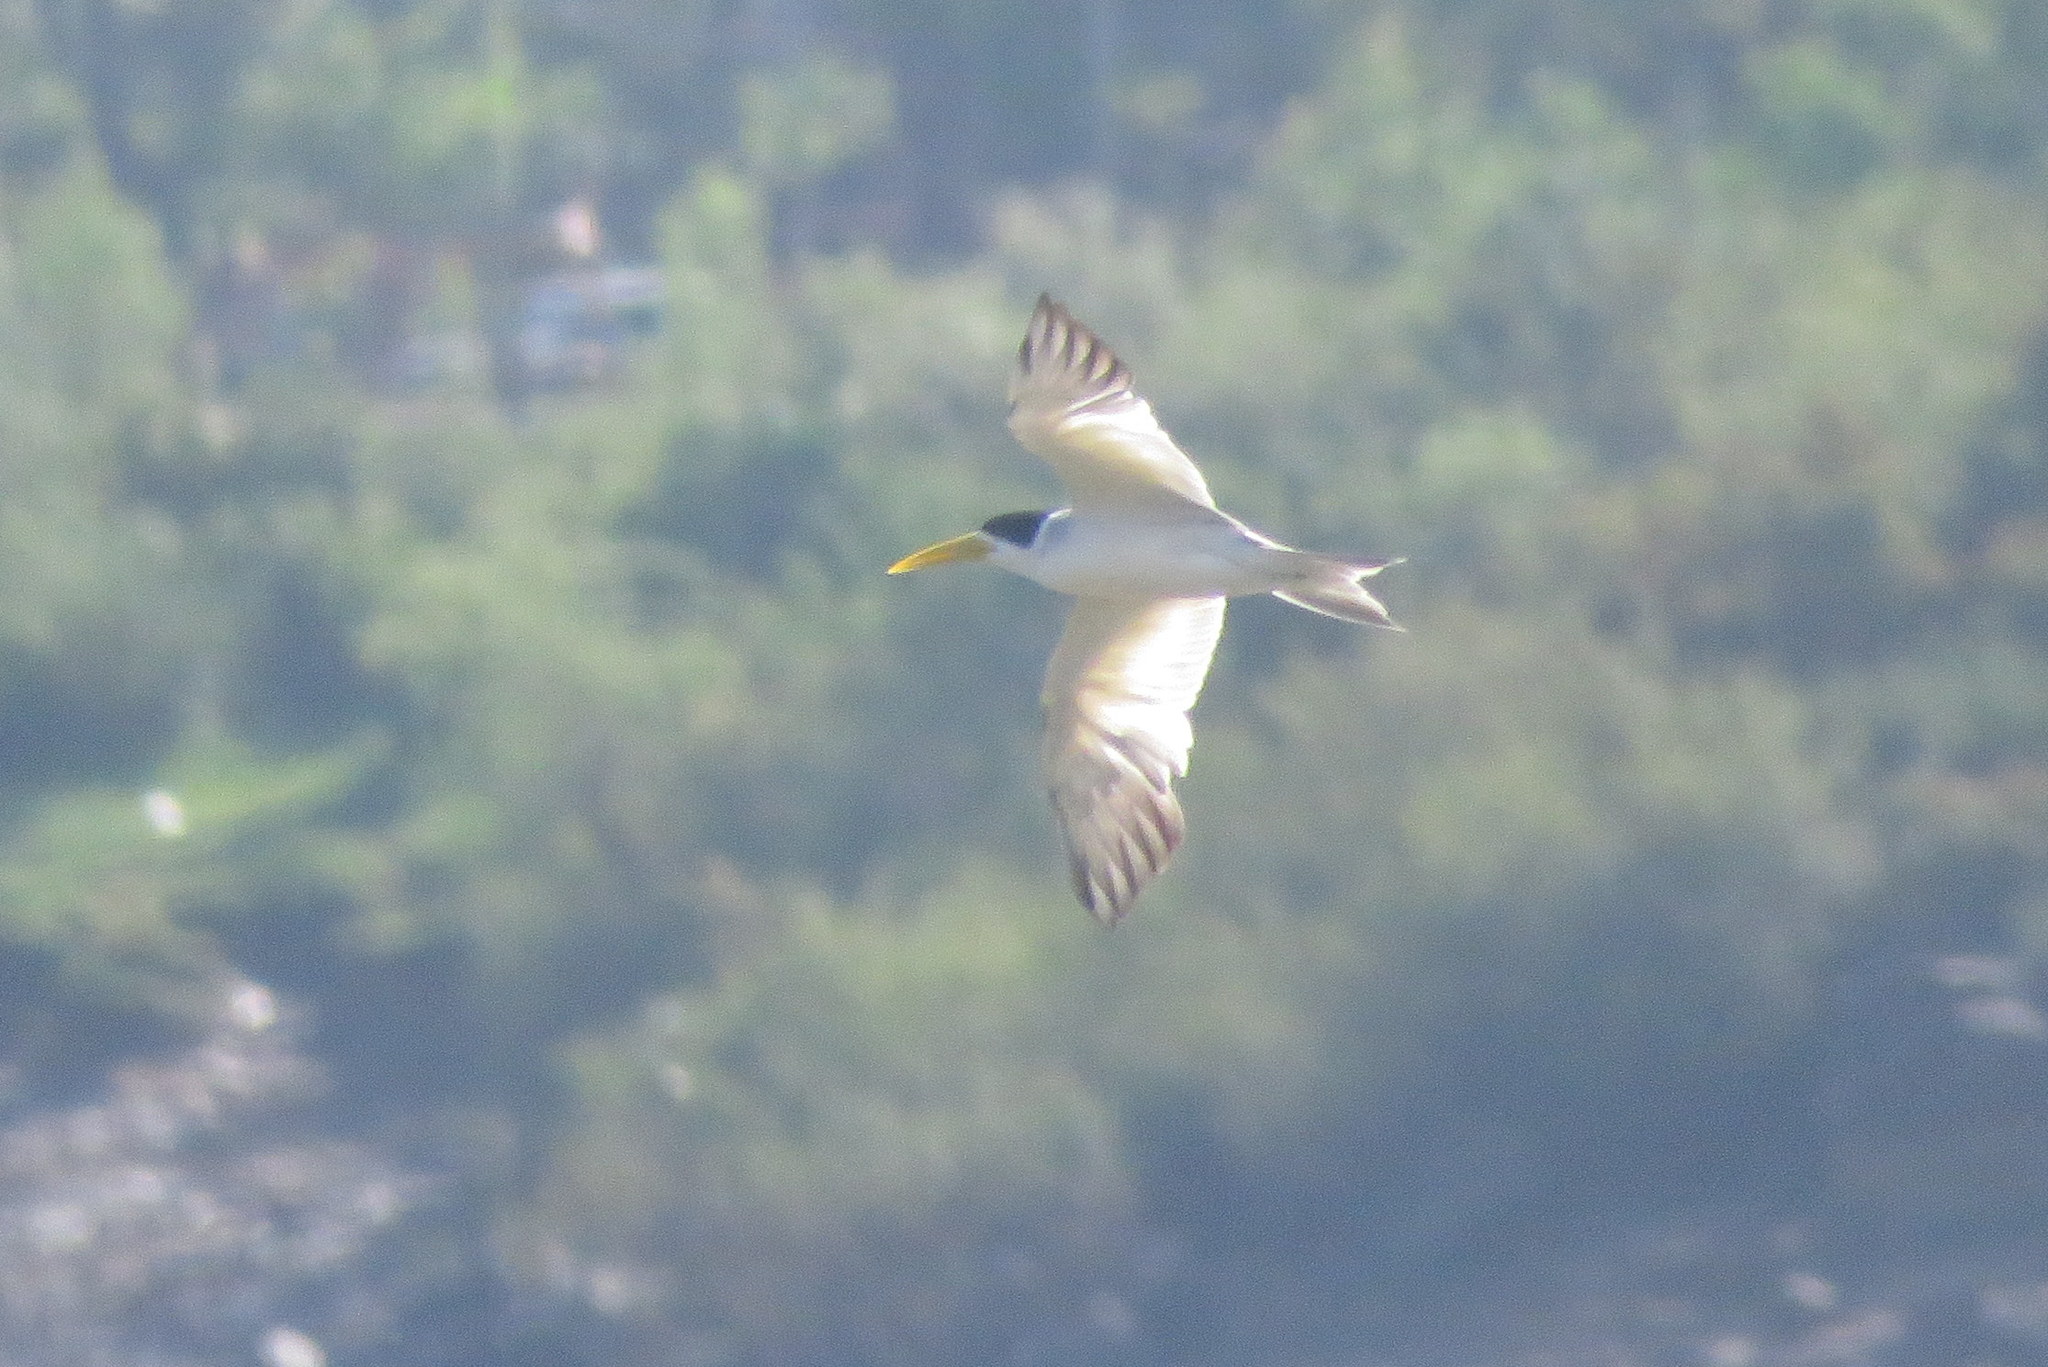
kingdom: Animalia
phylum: Chordata
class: Aves
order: Charadriiformes
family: Laridae
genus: Phaetusa
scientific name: Phaetusa simplex
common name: Large-billed tern
